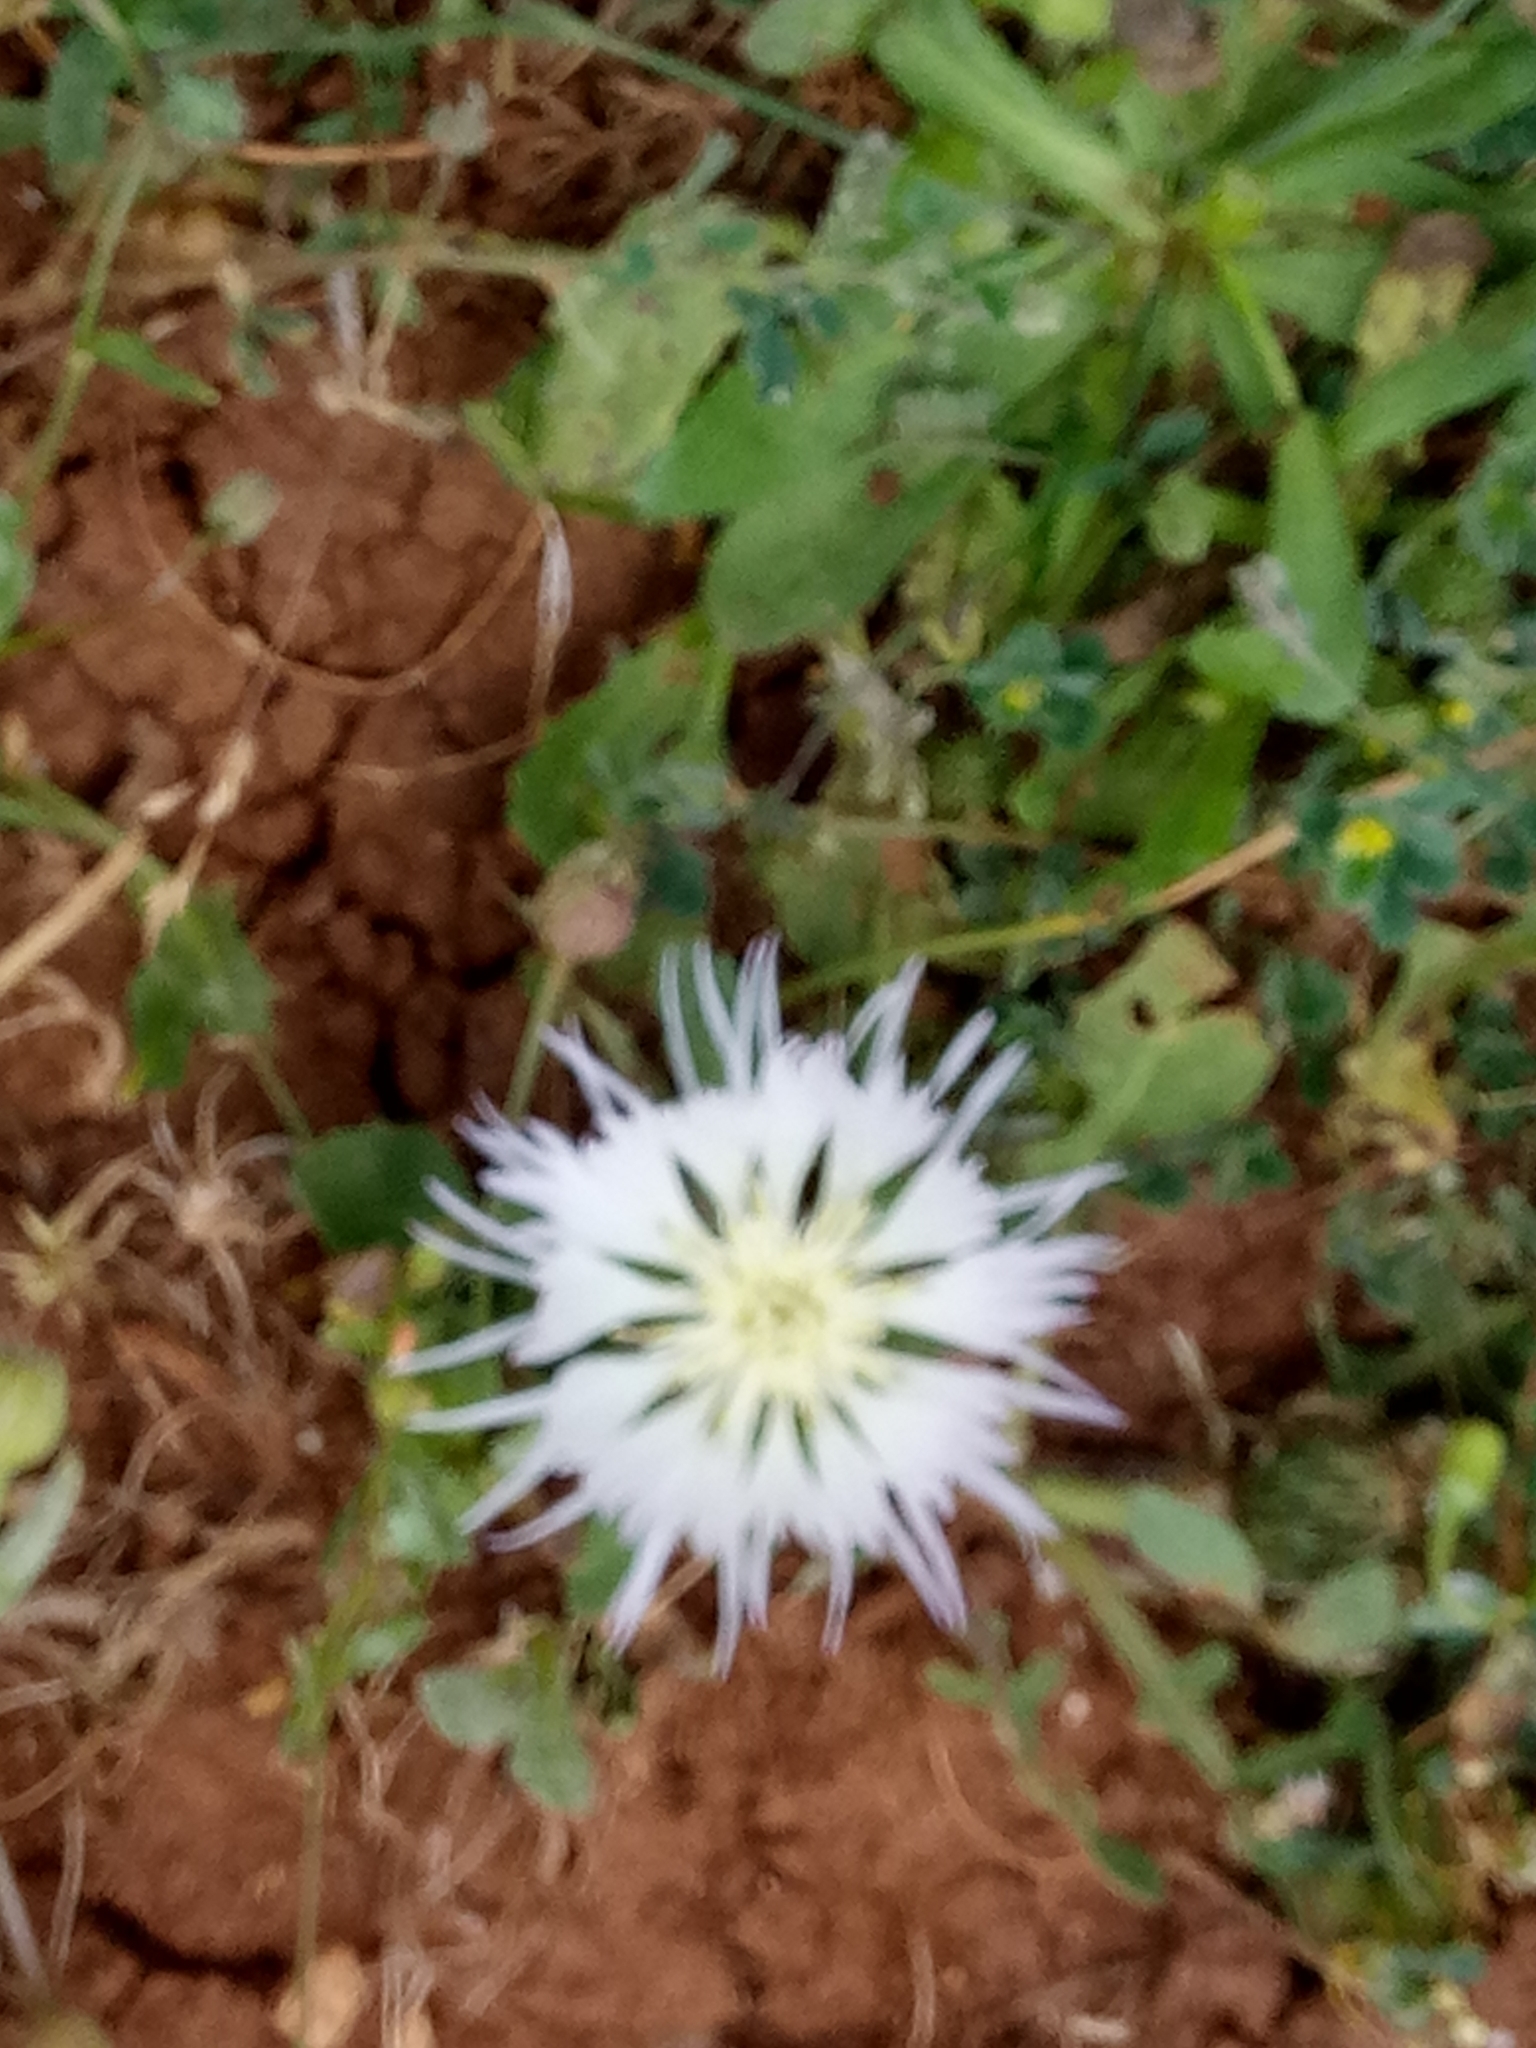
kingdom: Plantae
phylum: Tracheophyta
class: Magnoliopsida
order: Asterales
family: Asteraceae
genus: Centaurea
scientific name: Centaurea pullata
